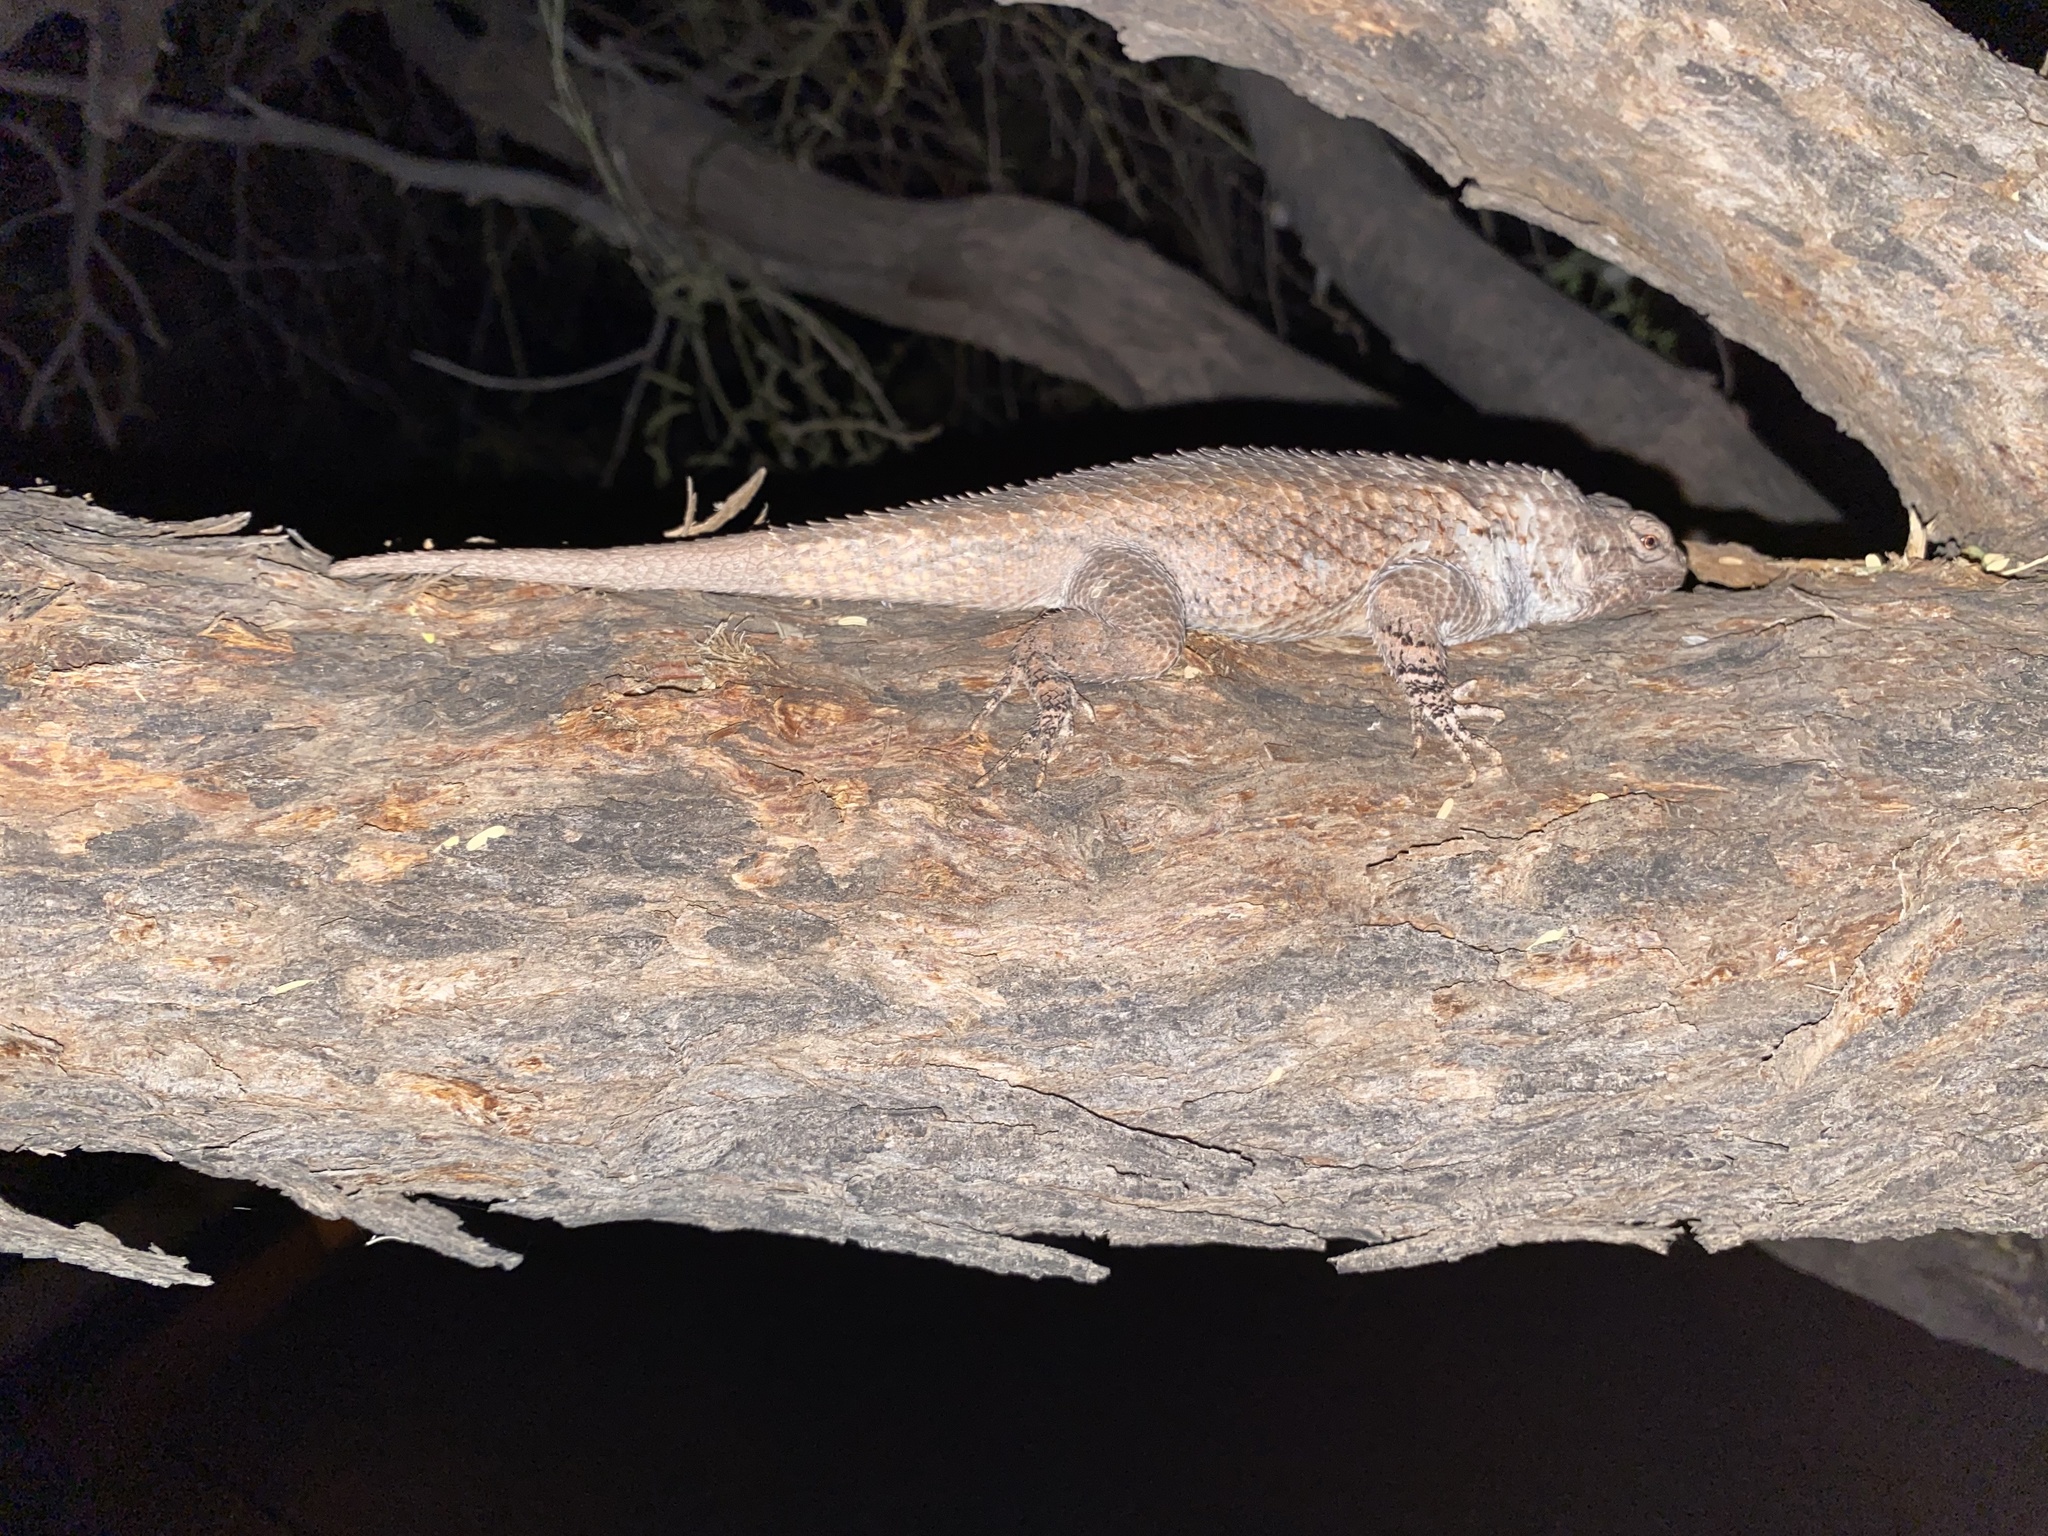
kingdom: Animalia
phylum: Chordata
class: Squamata
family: Phrynosomatidae
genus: Sceloporus
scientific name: Sceloporus clarkii
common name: Clark's spiny lizard
